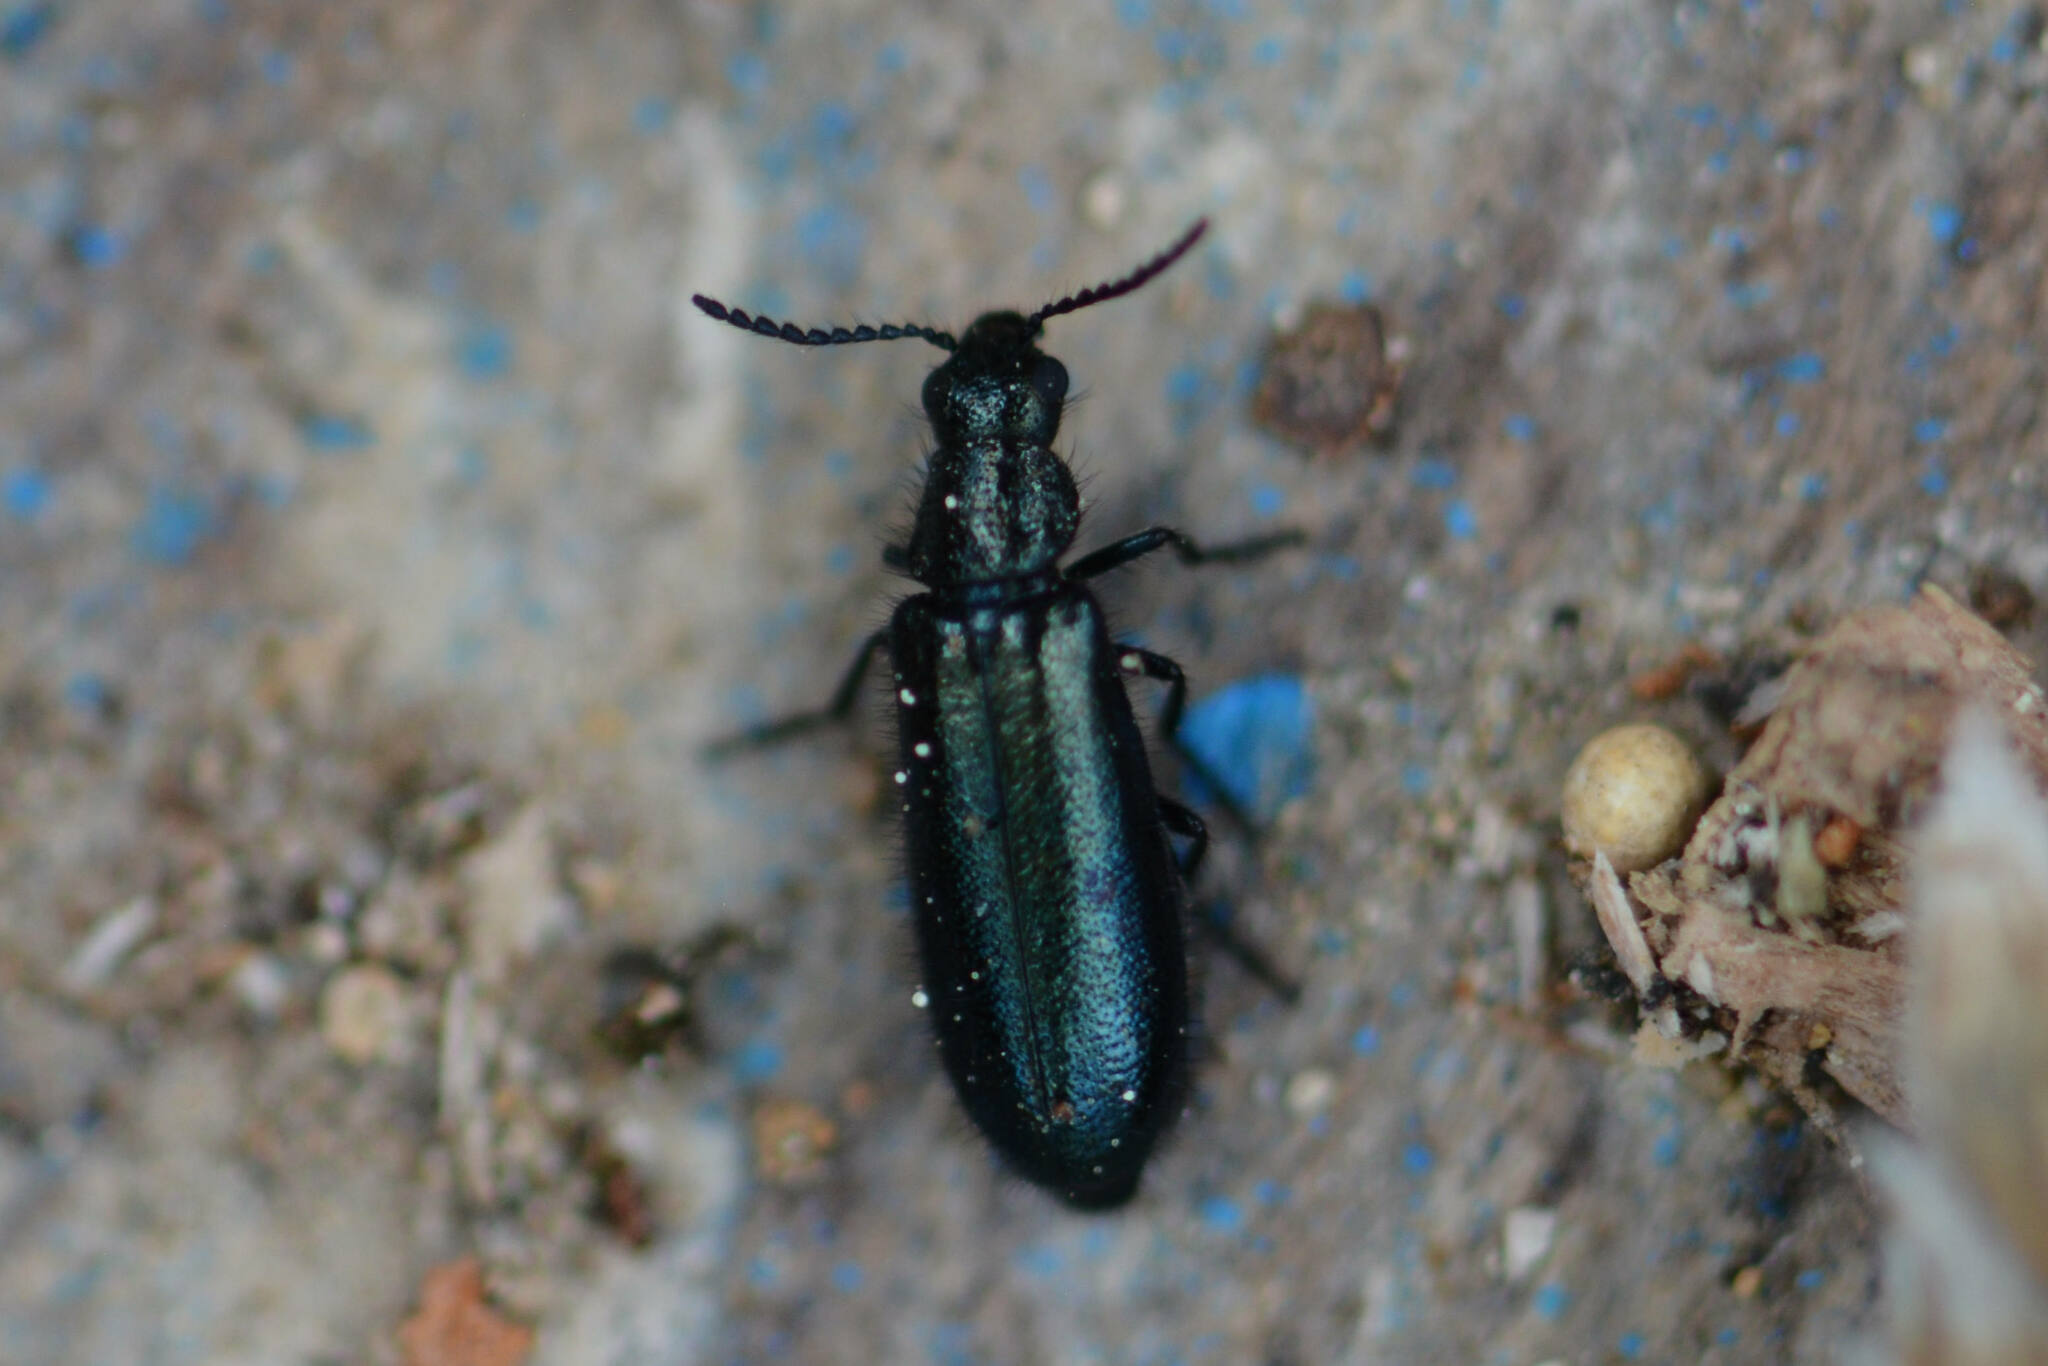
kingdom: Animalia
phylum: Arthropoda
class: Insecta
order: Coleoptera
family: Melyridae
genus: Dasytes
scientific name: Dasytes caeruleus
